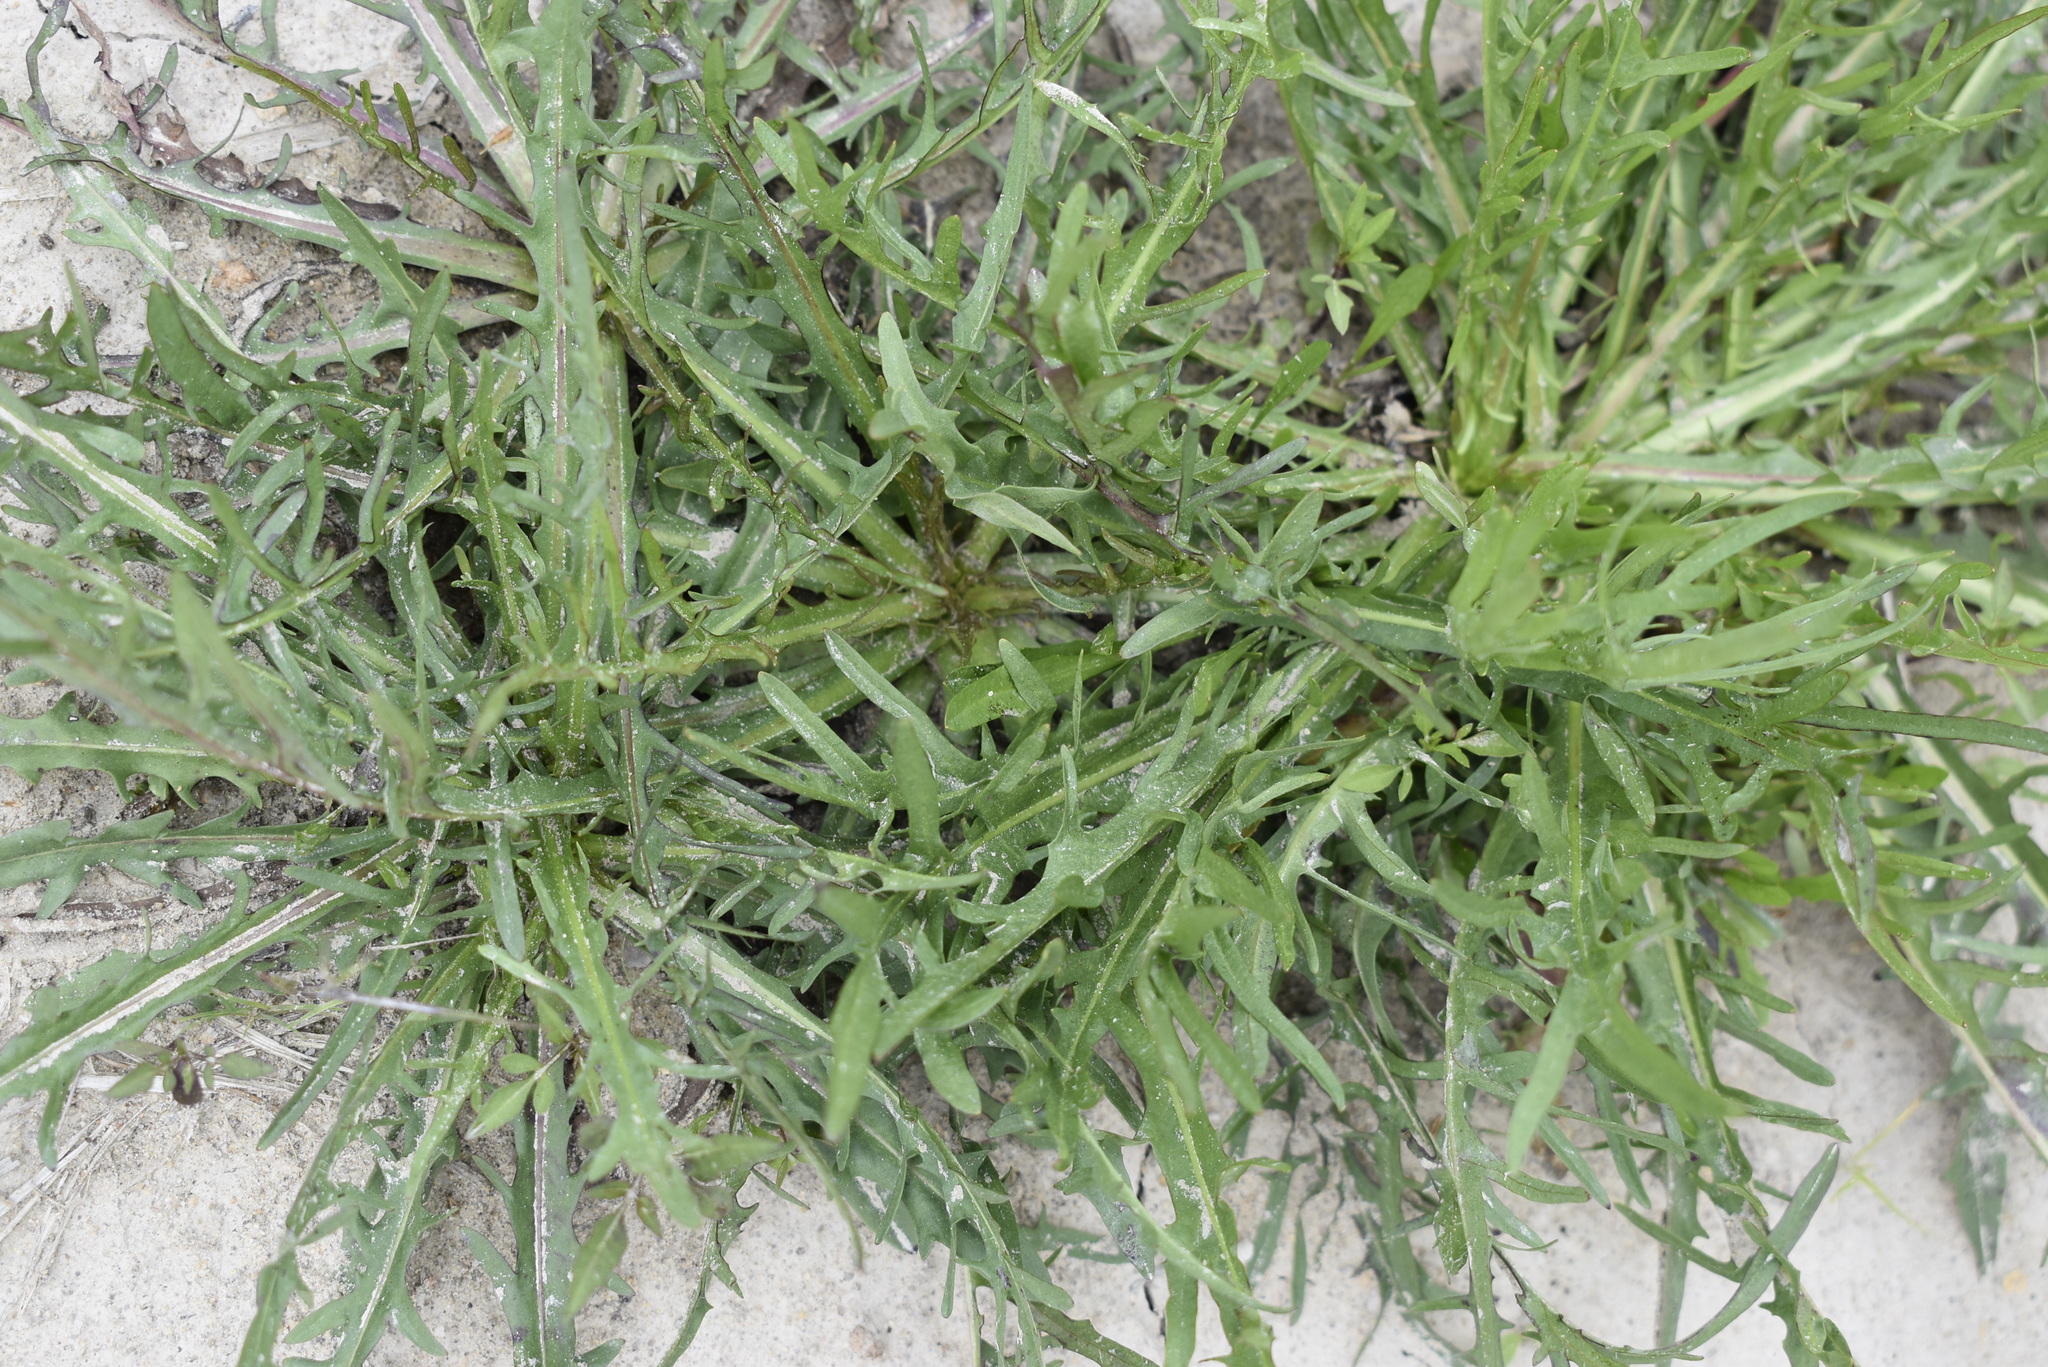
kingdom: Plantae
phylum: Tracheophyta
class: Magnoliopsida
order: Asterales
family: Asteraceae
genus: Scorzoneroides
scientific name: Scorzoneroides autumnalis
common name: Autumn hawkbit
